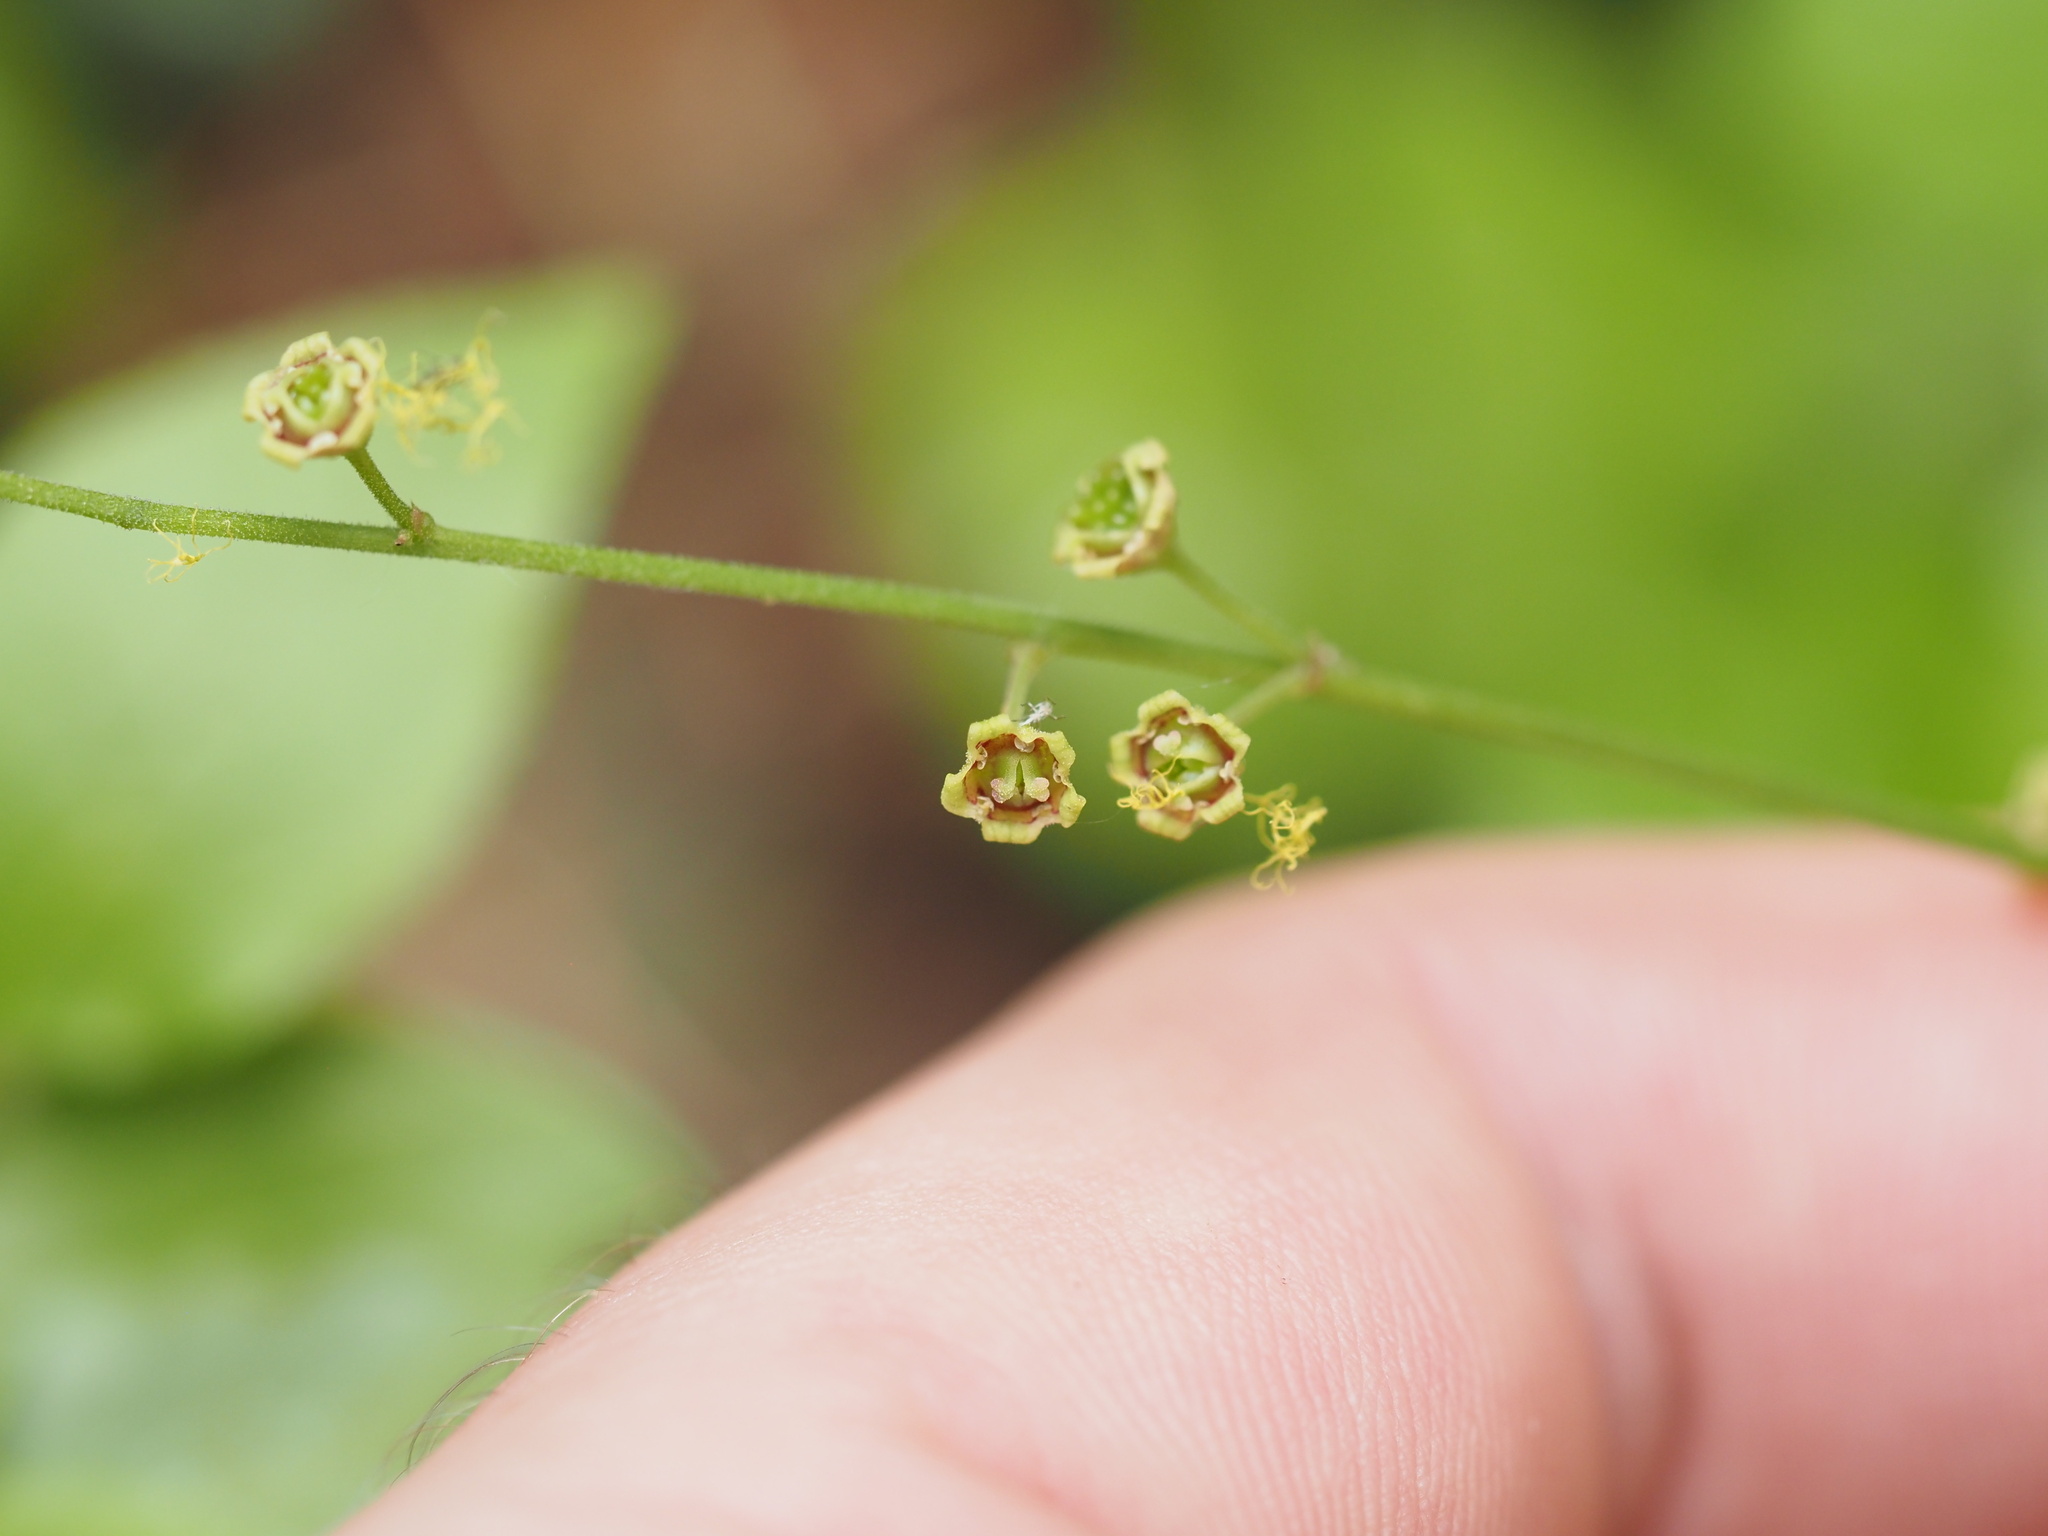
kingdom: Plantae
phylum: Tracheophyta
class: Magnoliopsida
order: Saxifragales
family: Saxifragaceae
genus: Pectiantia
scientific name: Pectiantia pentandra
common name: Alpine bishop's-cap
